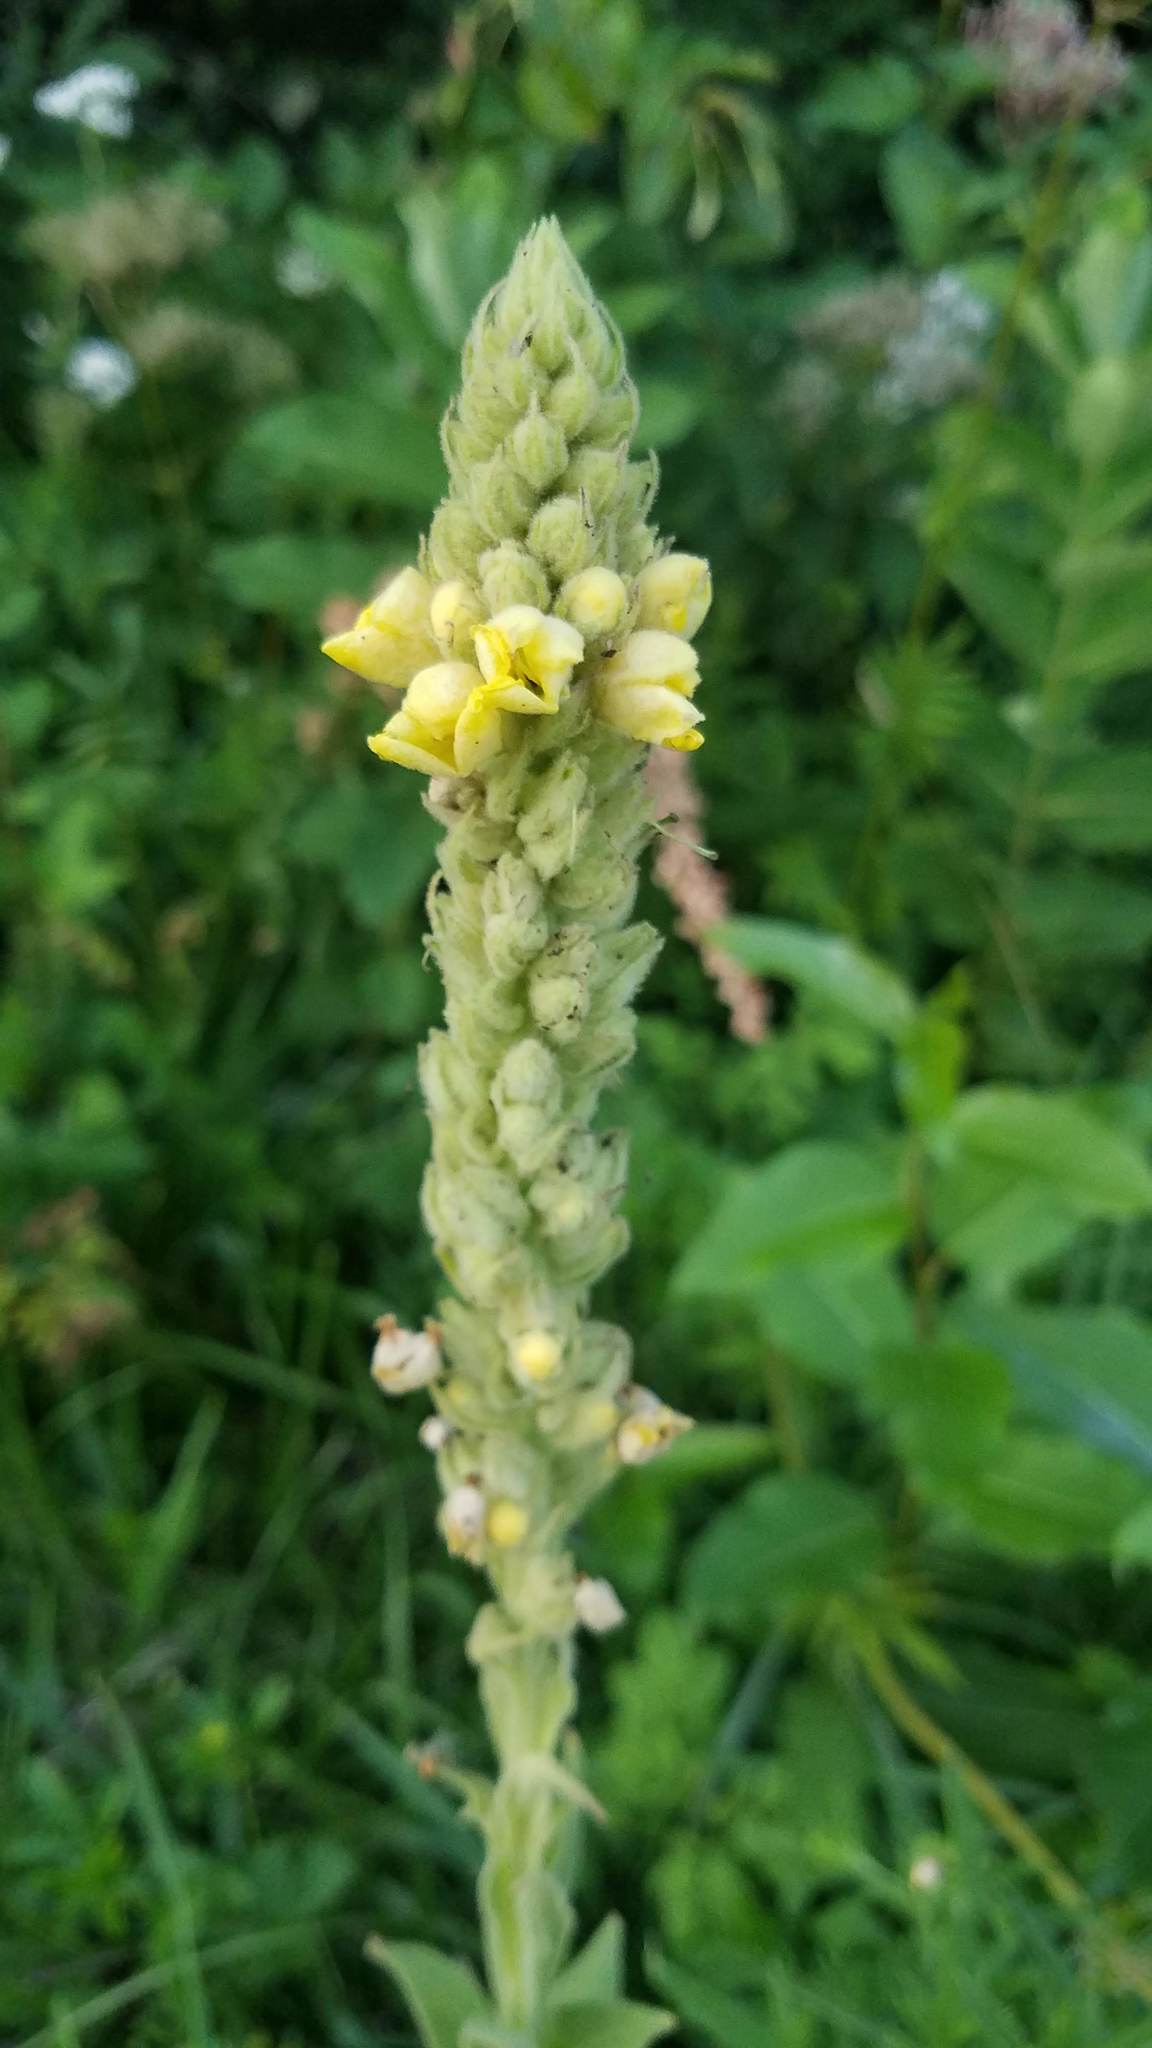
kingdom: Plantae
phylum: Tracheophyta
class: Magnoliopsida
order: Lamiales
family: Scrophulariaceae
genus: Verbascum
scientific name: Verbascum thapsus
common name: Common mullein
